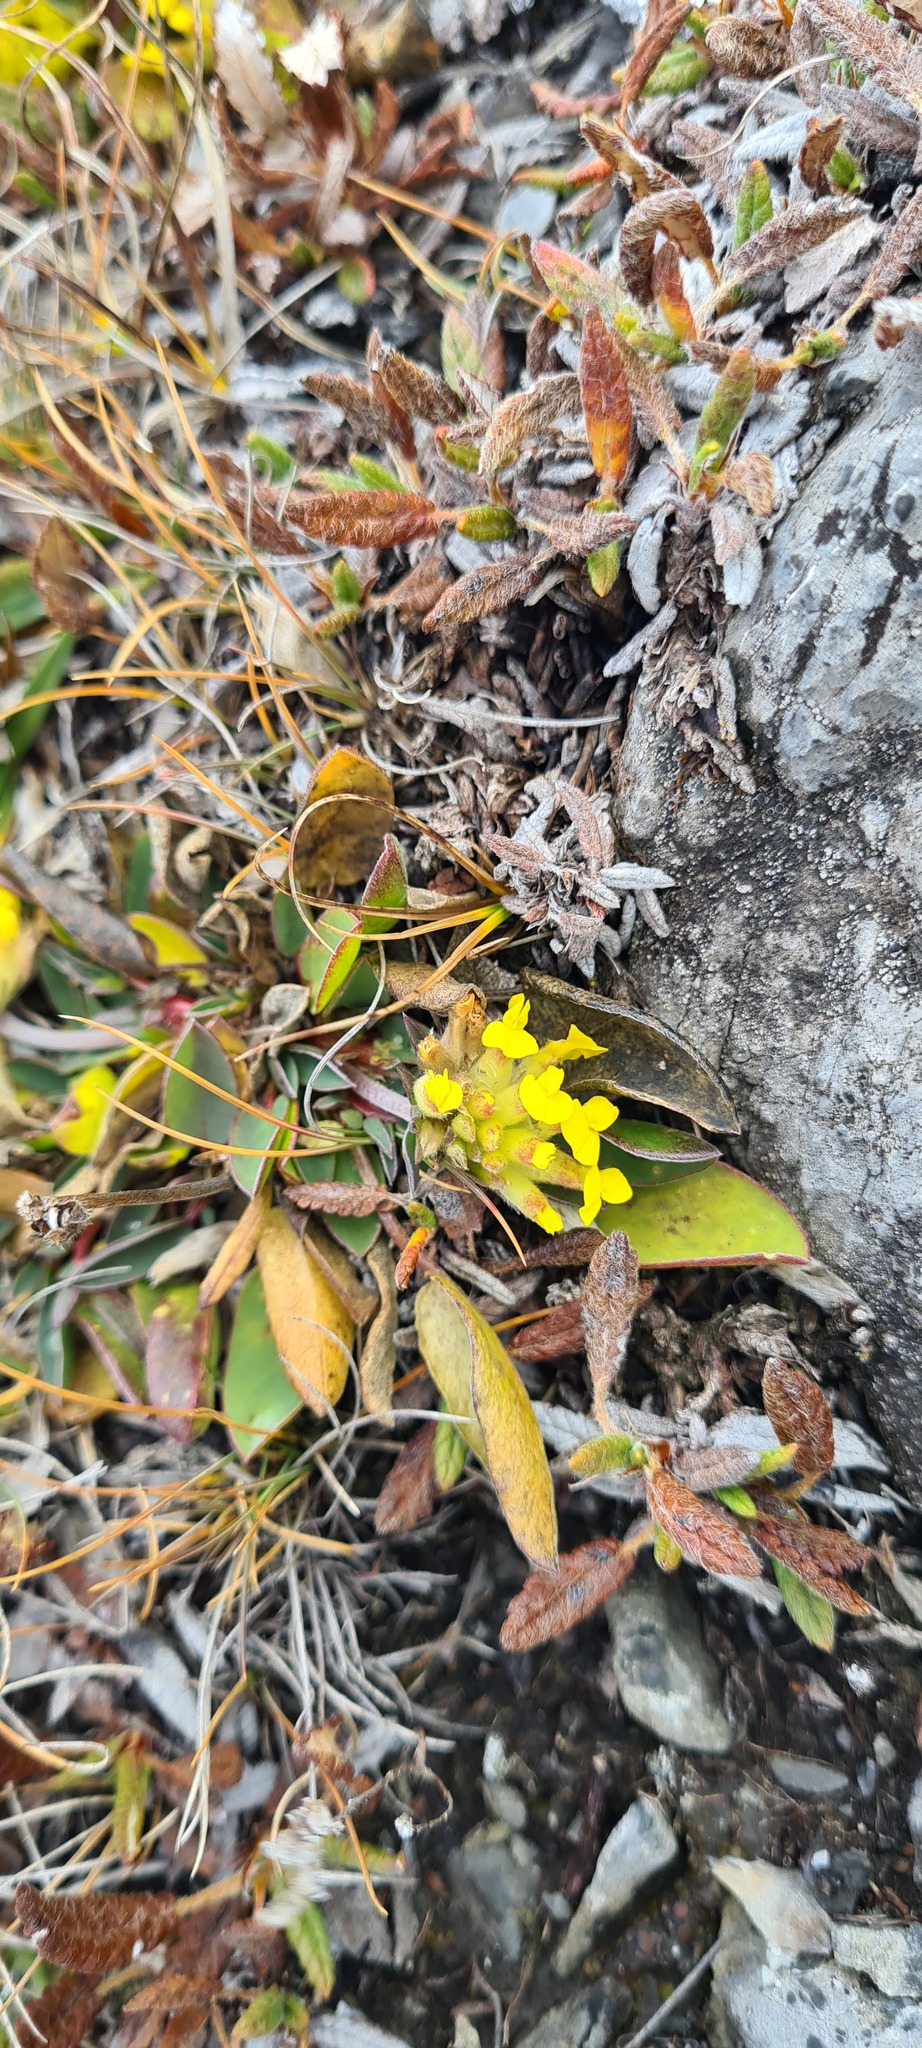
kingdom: Plantae
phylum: Tracheophyta
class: Magnoliopsida
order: Fabales
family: Fabaceae
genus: Anthyllis
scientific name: Anthyllis vulneraria
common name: Kidney vetch
